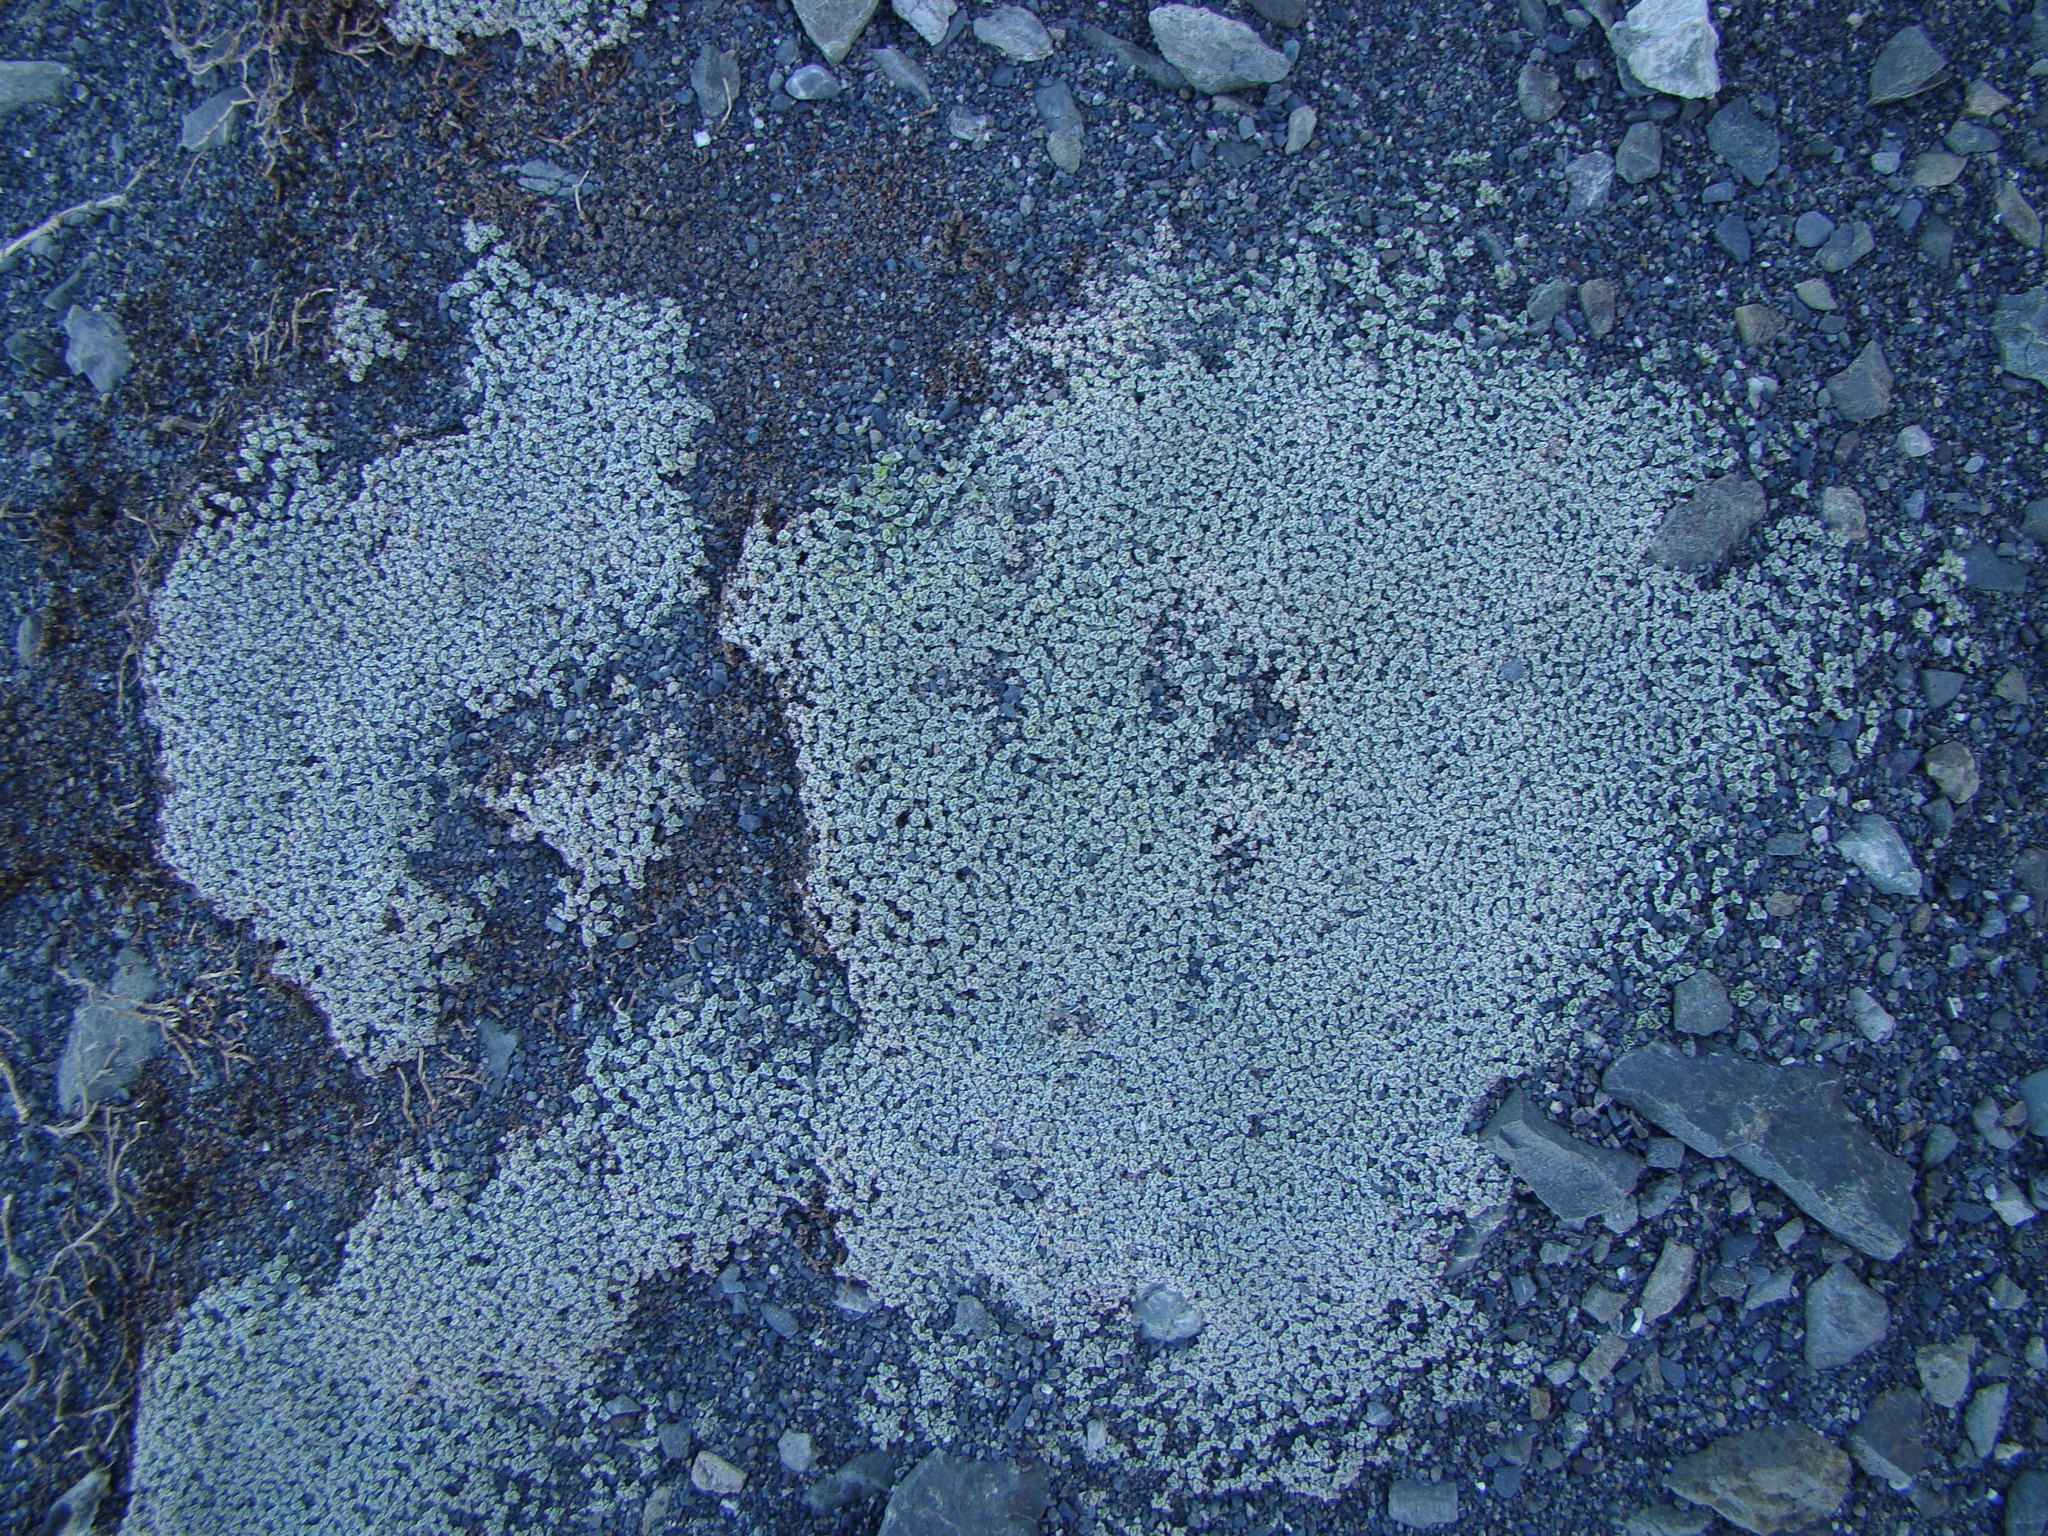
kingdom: Plantae
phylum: Tracheophyta
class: Magnoliopsida
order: Asterales
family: Asteraceae
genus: Raoulia
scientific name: Raoulia australis
